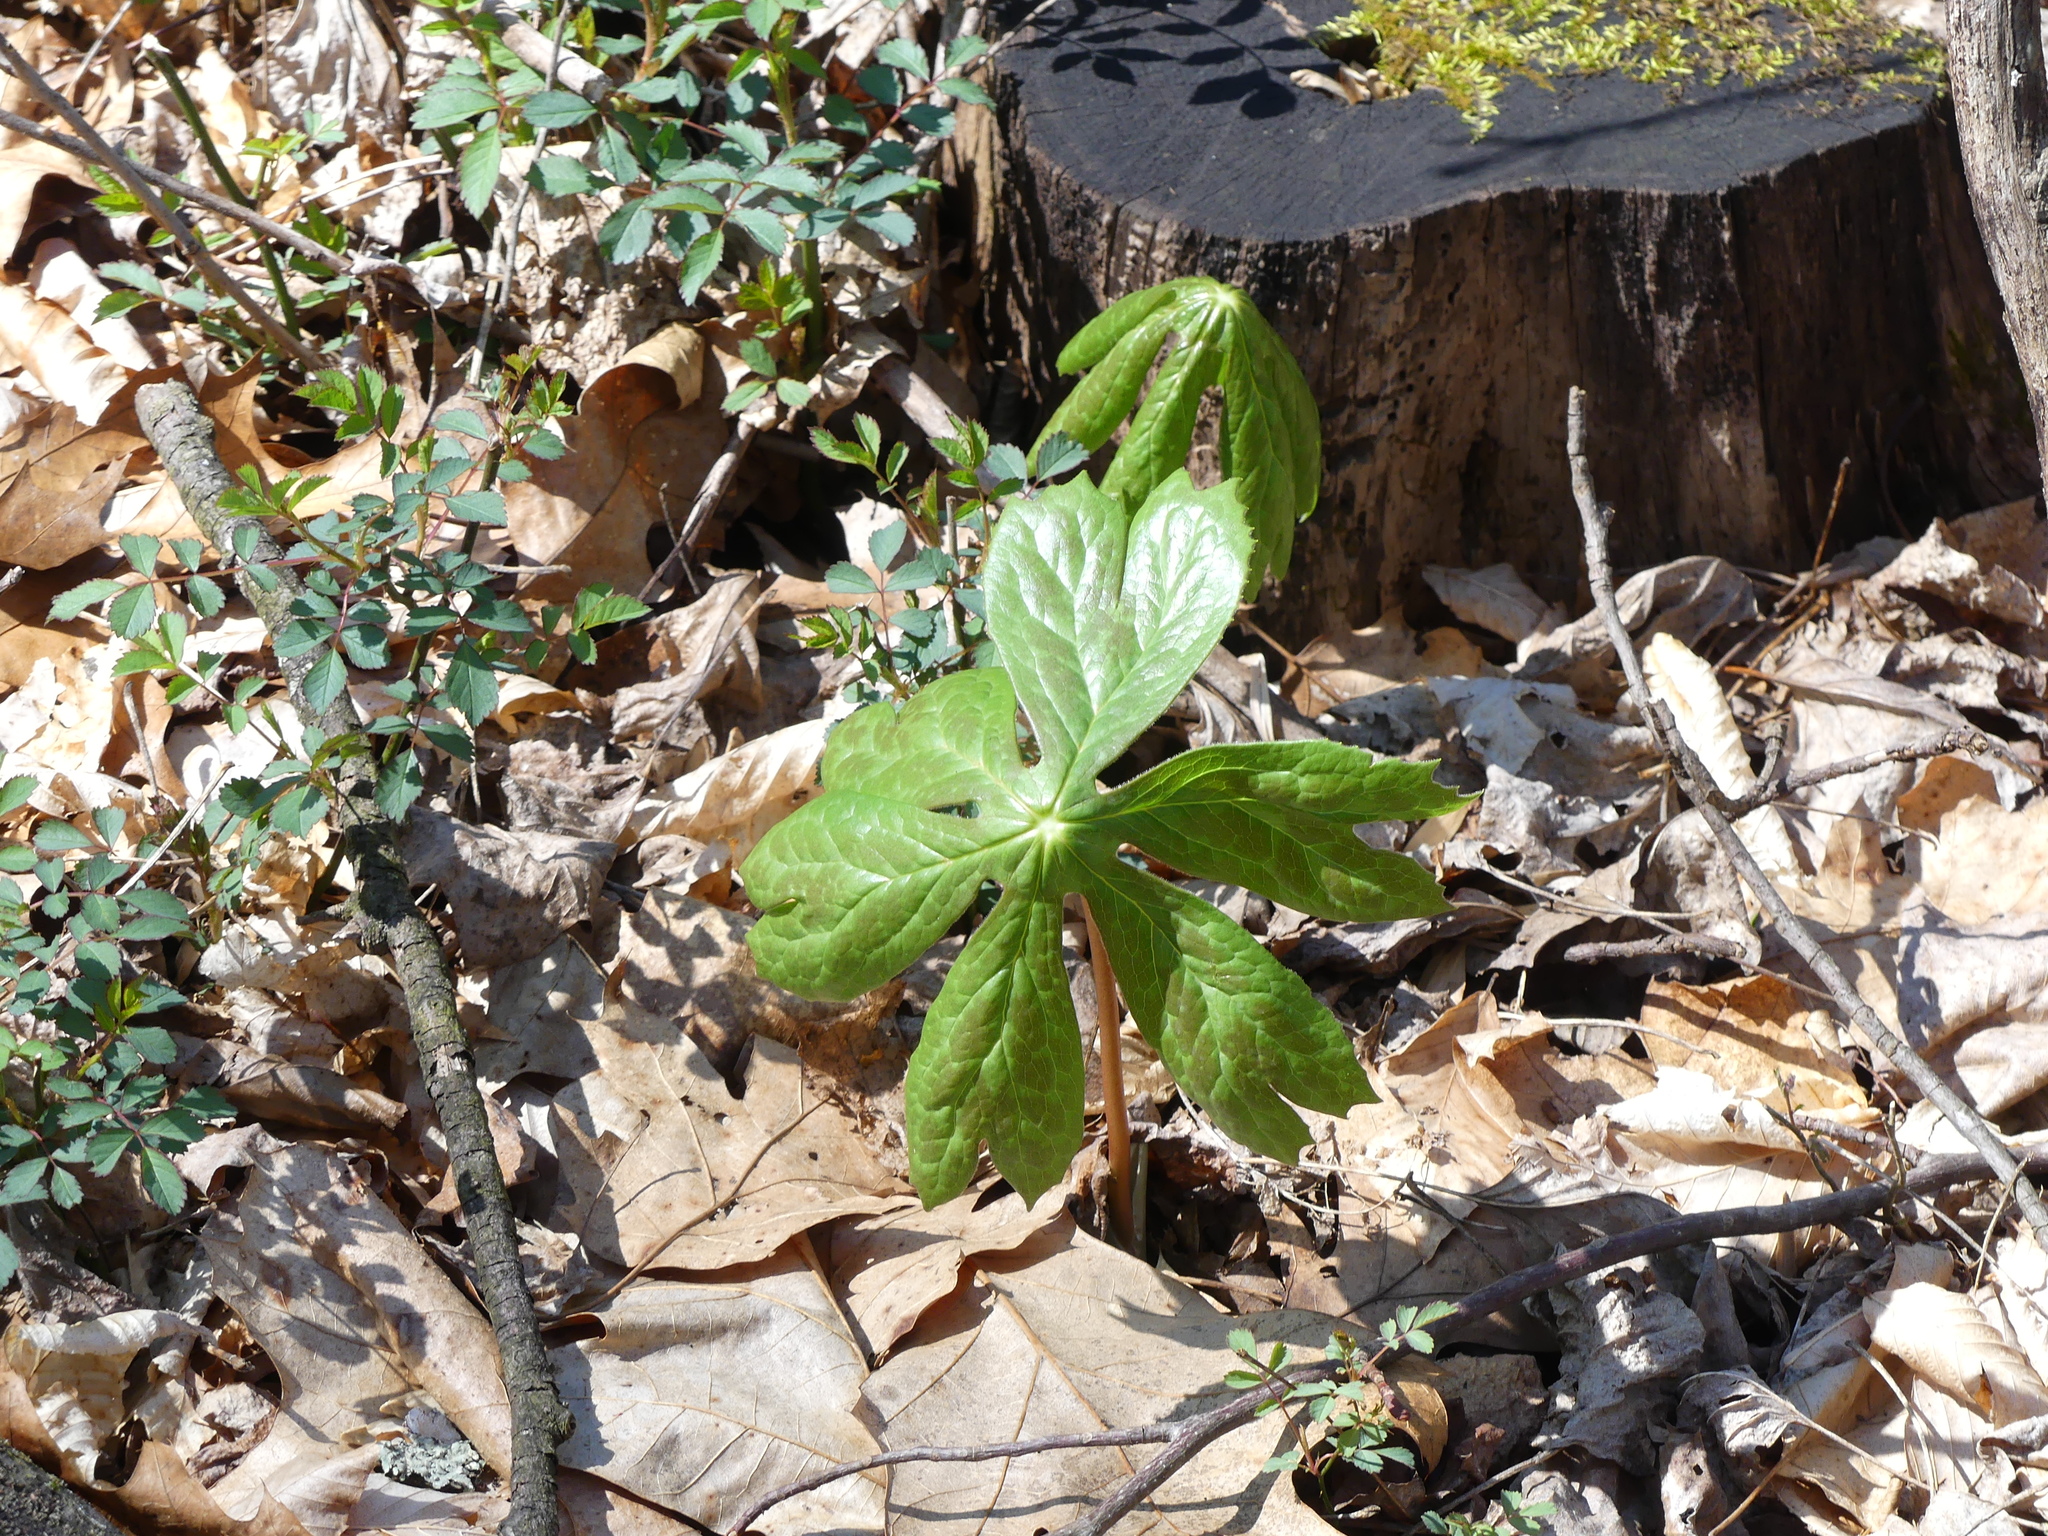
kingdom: Plantae
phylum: Tracheophyta
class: Magnoliopsida
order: Ranunculales
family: Berberidaceae
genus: Podophyllum
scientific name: Podophyllum peltatum
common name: Wild mandrake
